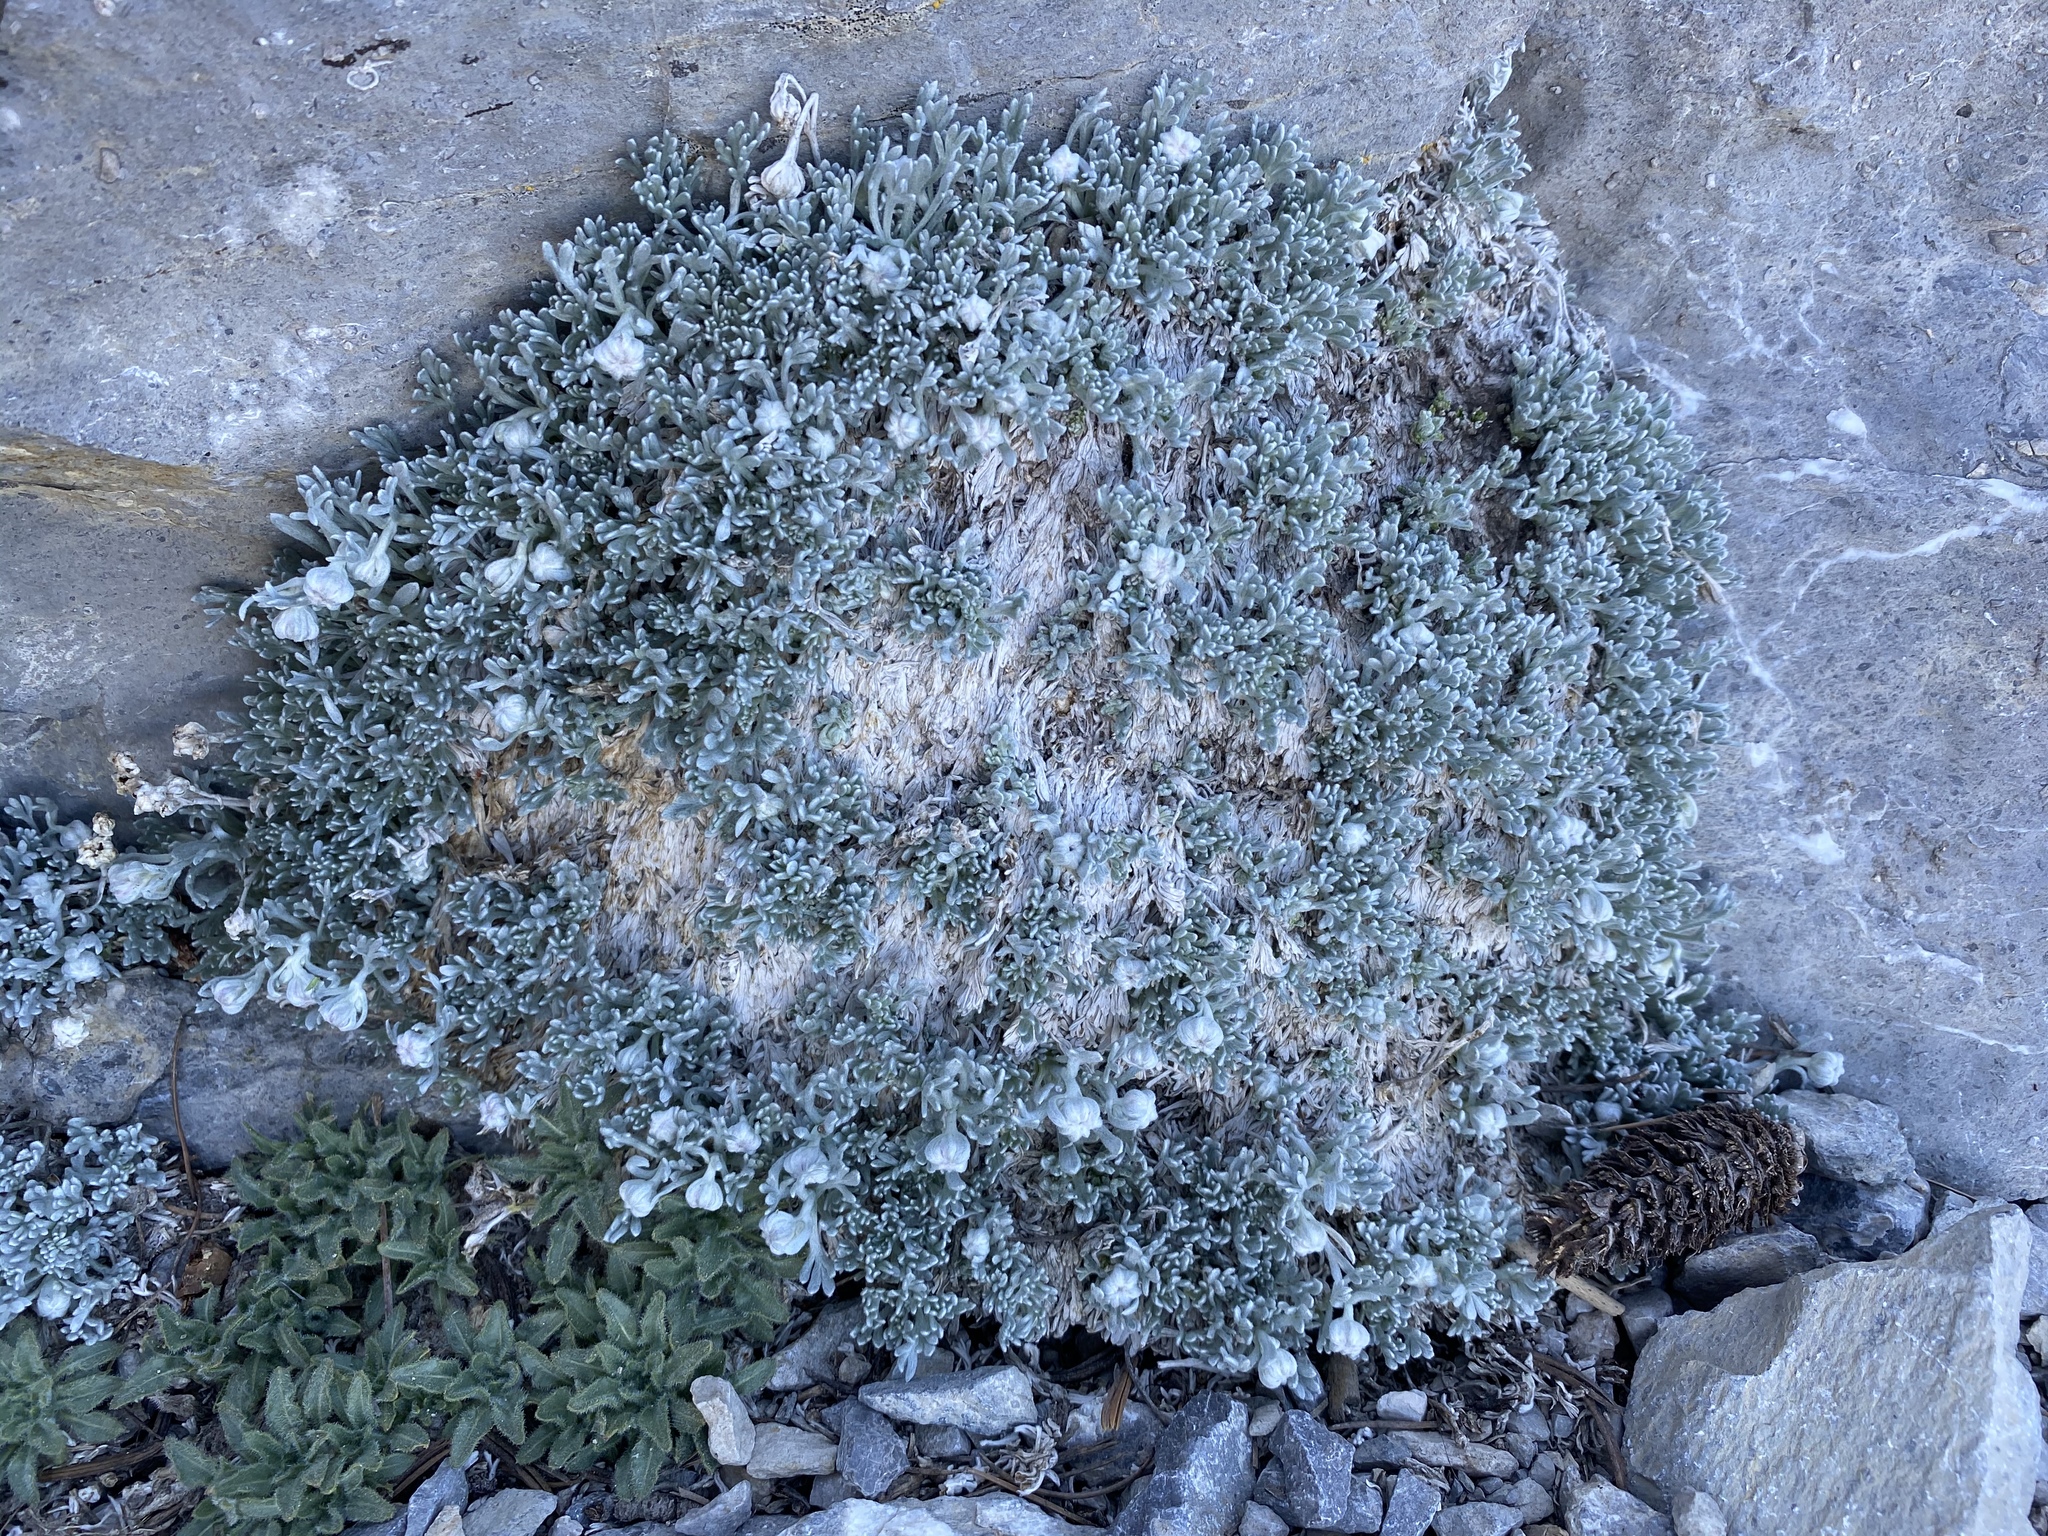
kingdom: Plantae
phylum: Tracheophyta
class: Magnoliopsida
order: Asterales
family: Asteraceae
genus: Artemisia
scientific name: Artemisia constricta
